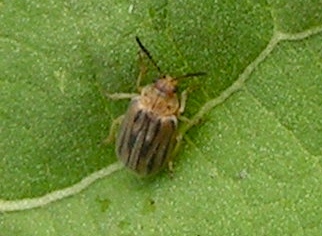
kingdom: Animalia
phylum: Arthropoda
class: Insecta
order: Coleoptera
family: Chrysomelidae
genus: Ophraella
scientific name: Ophraella
